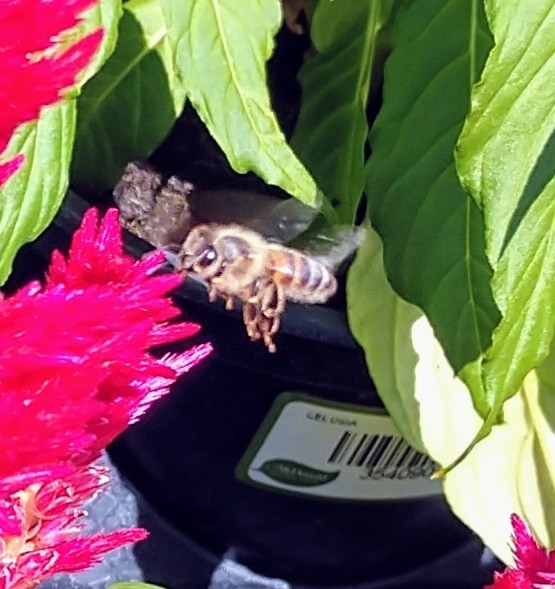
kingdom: Animalia
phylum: Arthropoda
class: Insecta
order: Hymenoptera
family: Apidae
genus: Apis
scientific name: Apis mellifera
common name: Honey bee
